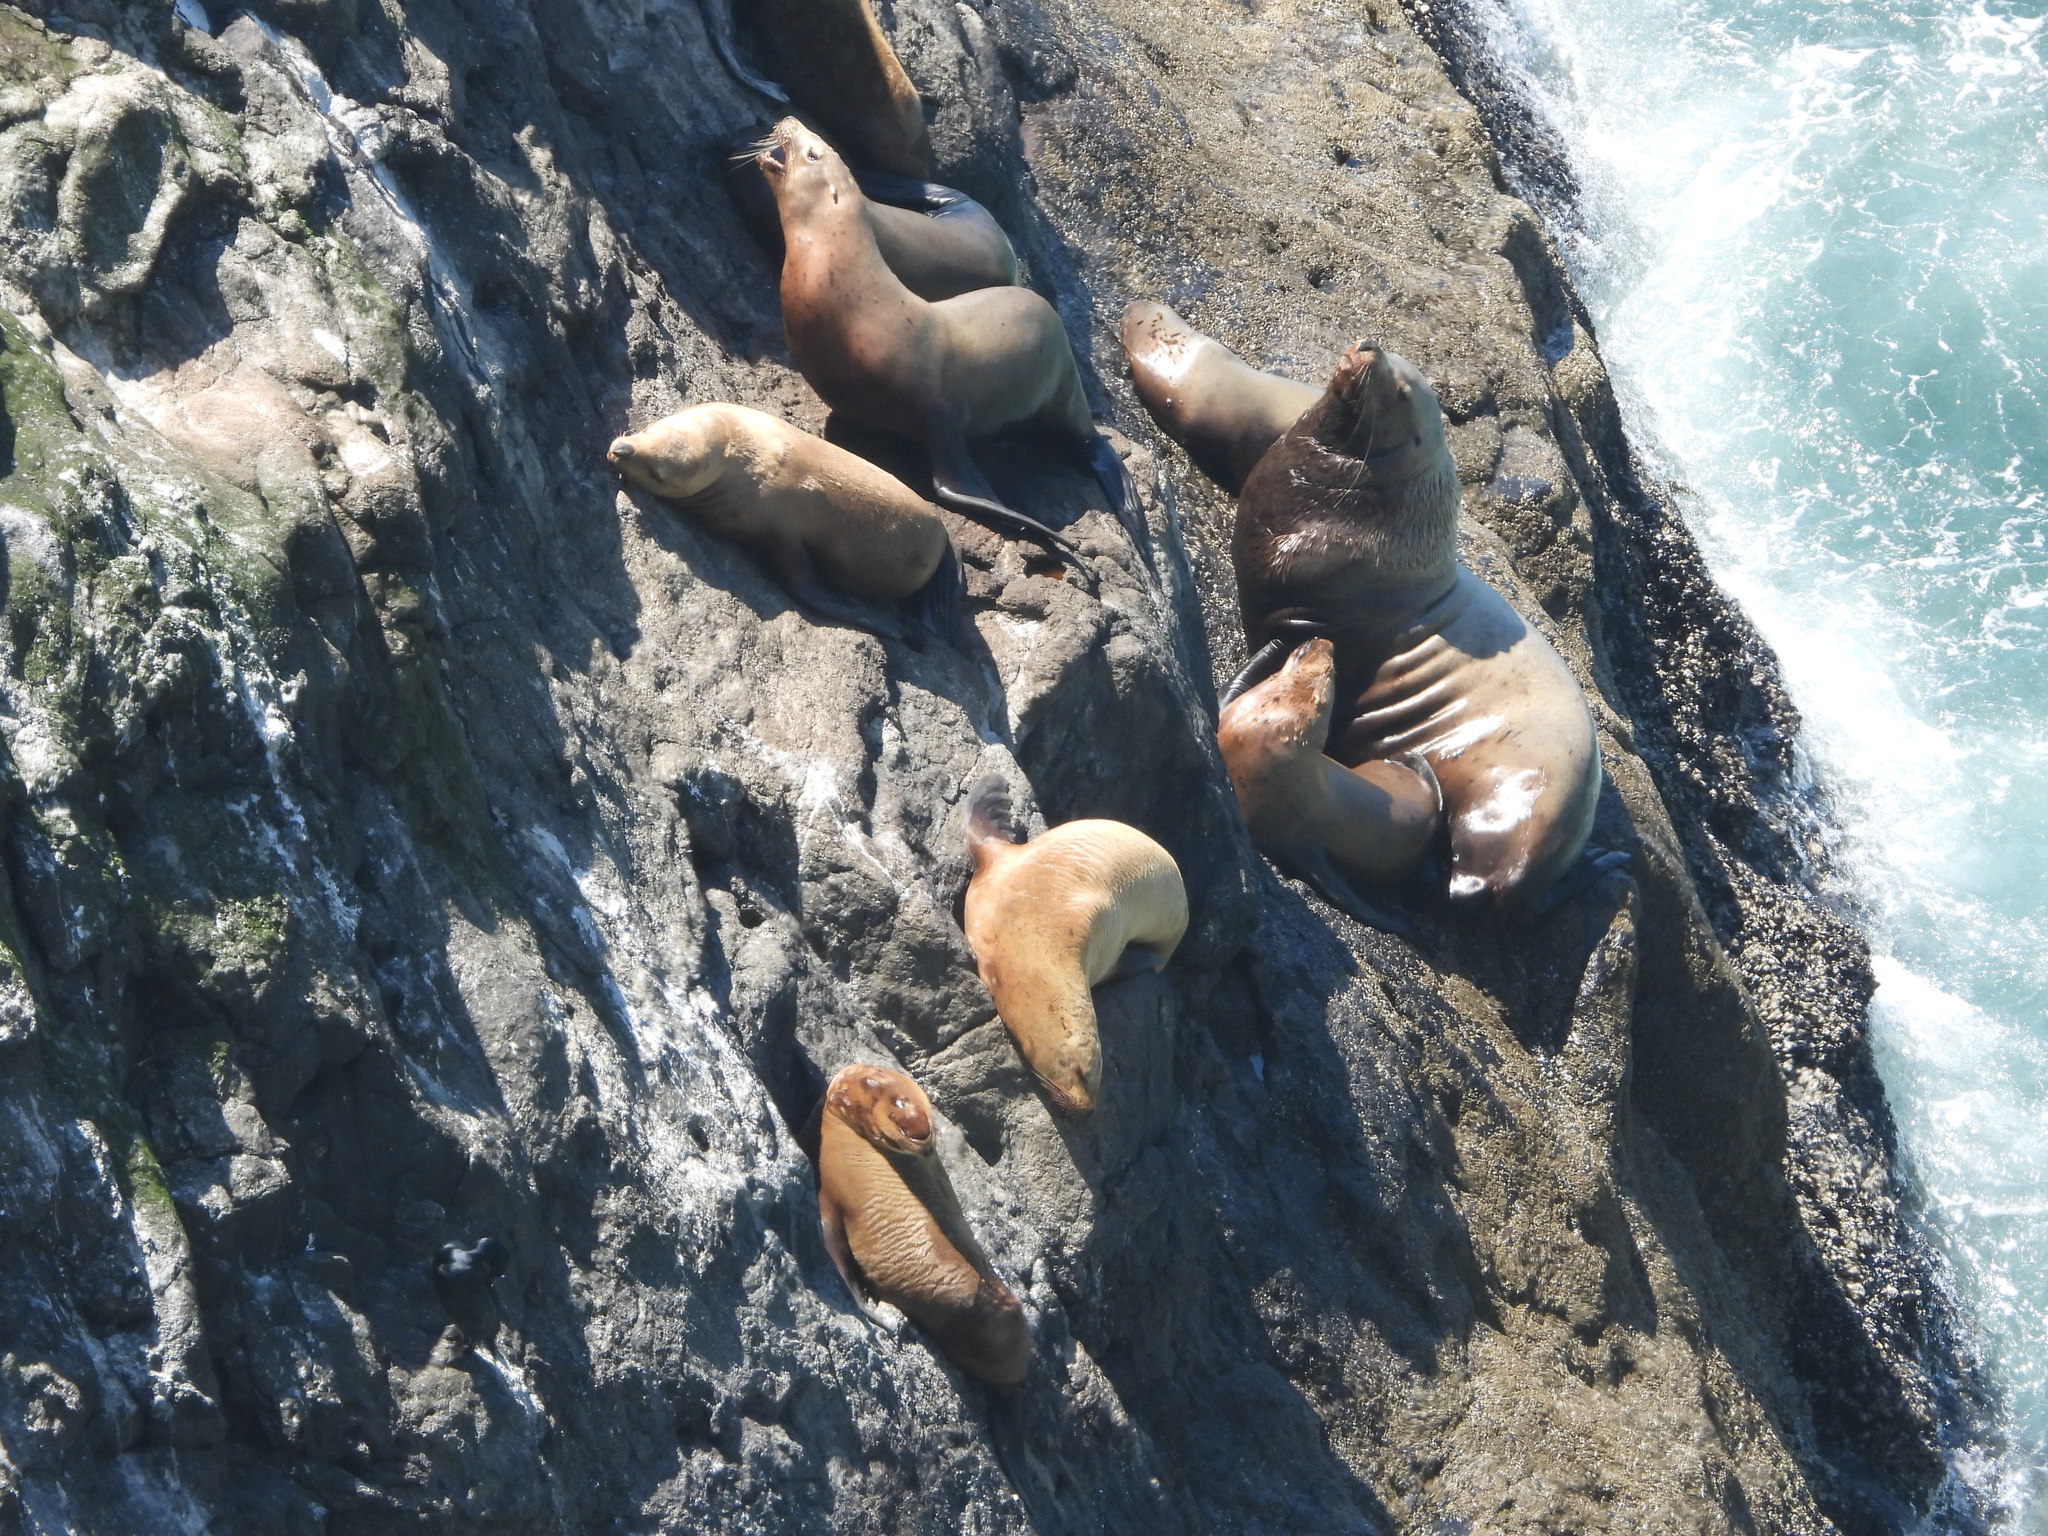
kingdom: Animalia
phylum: Chordata
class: Mammalia
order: Carnivora
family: Otariidae
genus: Eumetopias
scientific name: Eumetopias jubatus
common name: Steller sea lion
